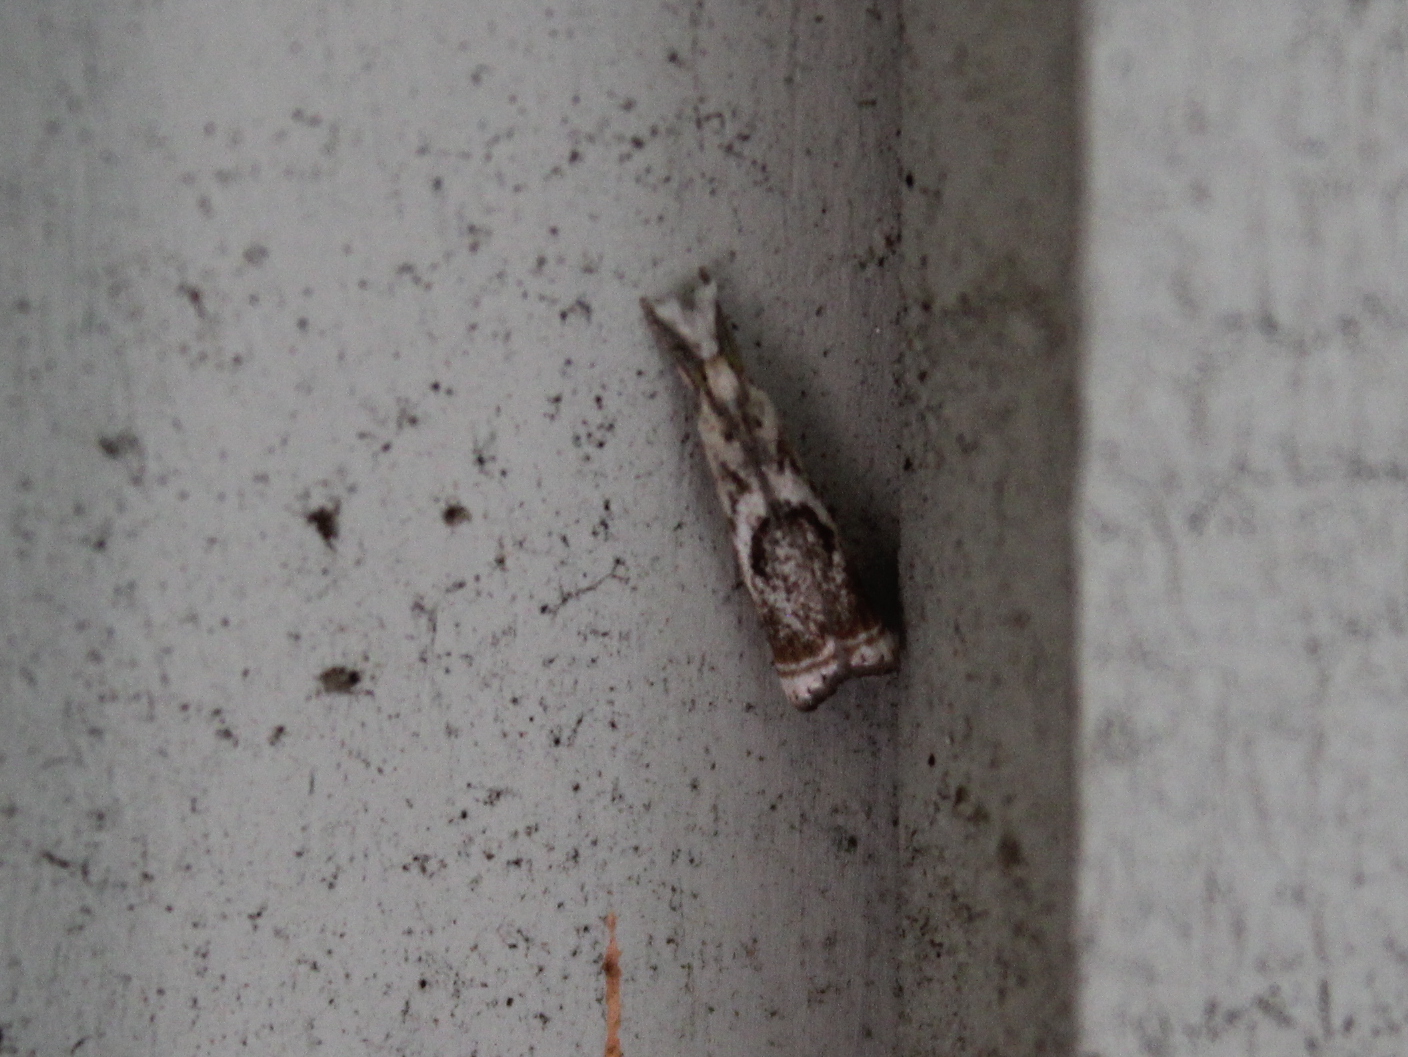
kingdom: Animalia
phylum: Arthropoda
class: Insecta
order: Lepidoptera
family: Crambidae
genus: Microcrambus
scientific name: Microcrambus elegans
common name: Elegant grass-veneer
